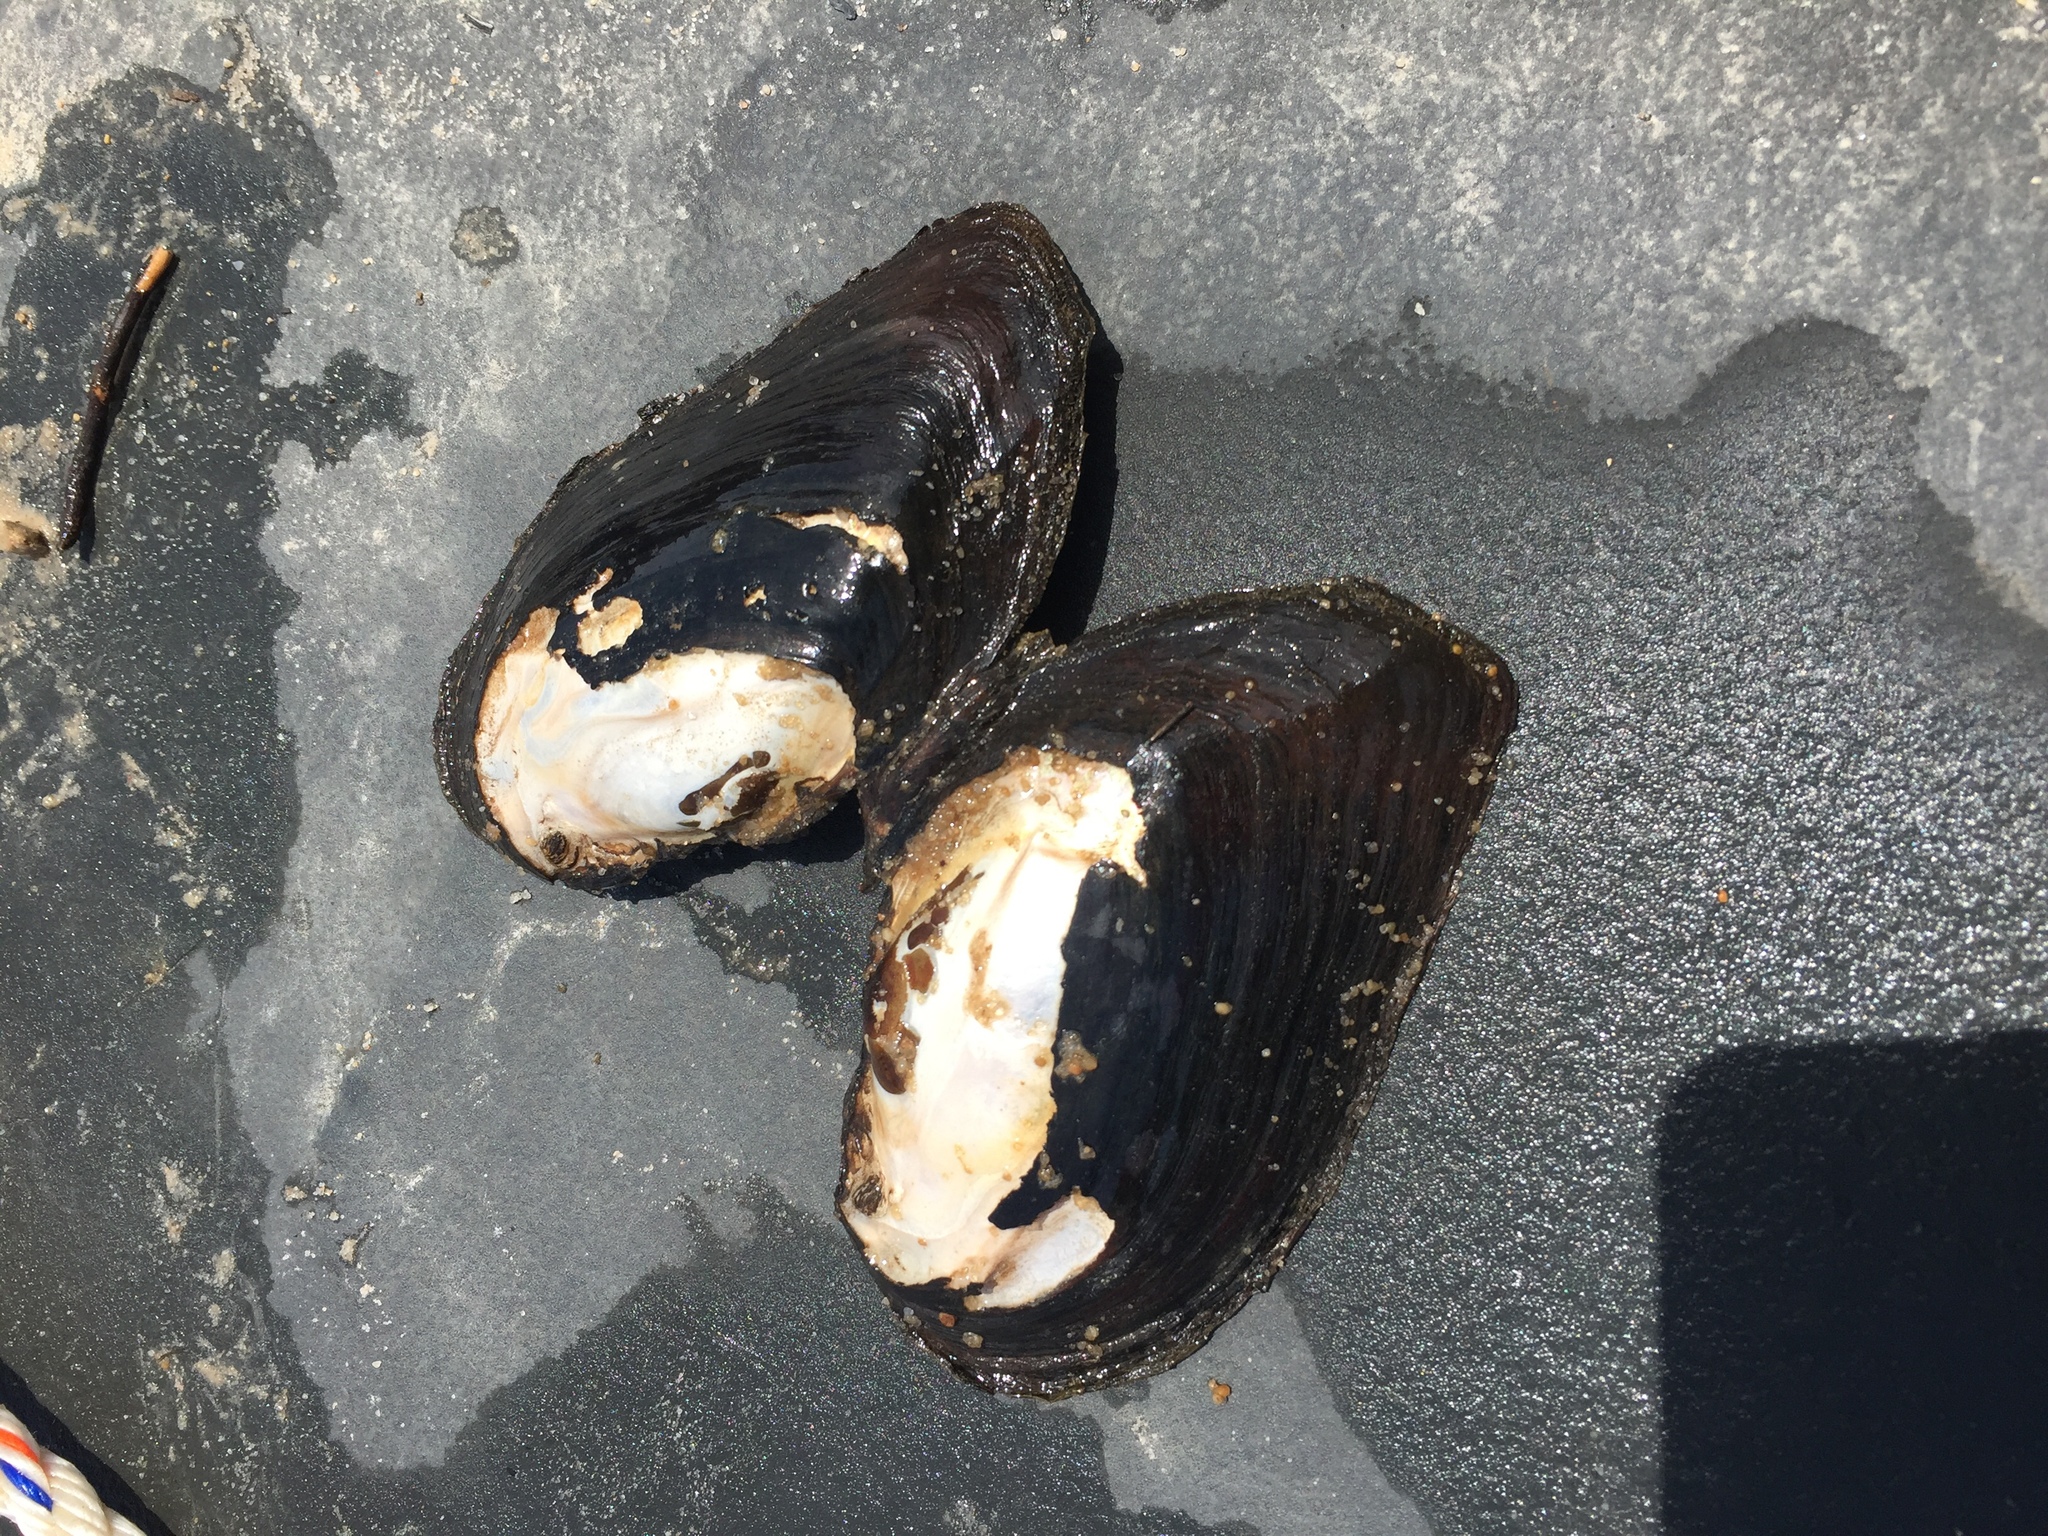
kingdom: Animalia
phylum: Mollusca
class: Bivalvia
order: Unionida
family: Unionidae
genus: Plectomerus
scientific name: Plectomerus dombeyanus
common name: Bankclimber
